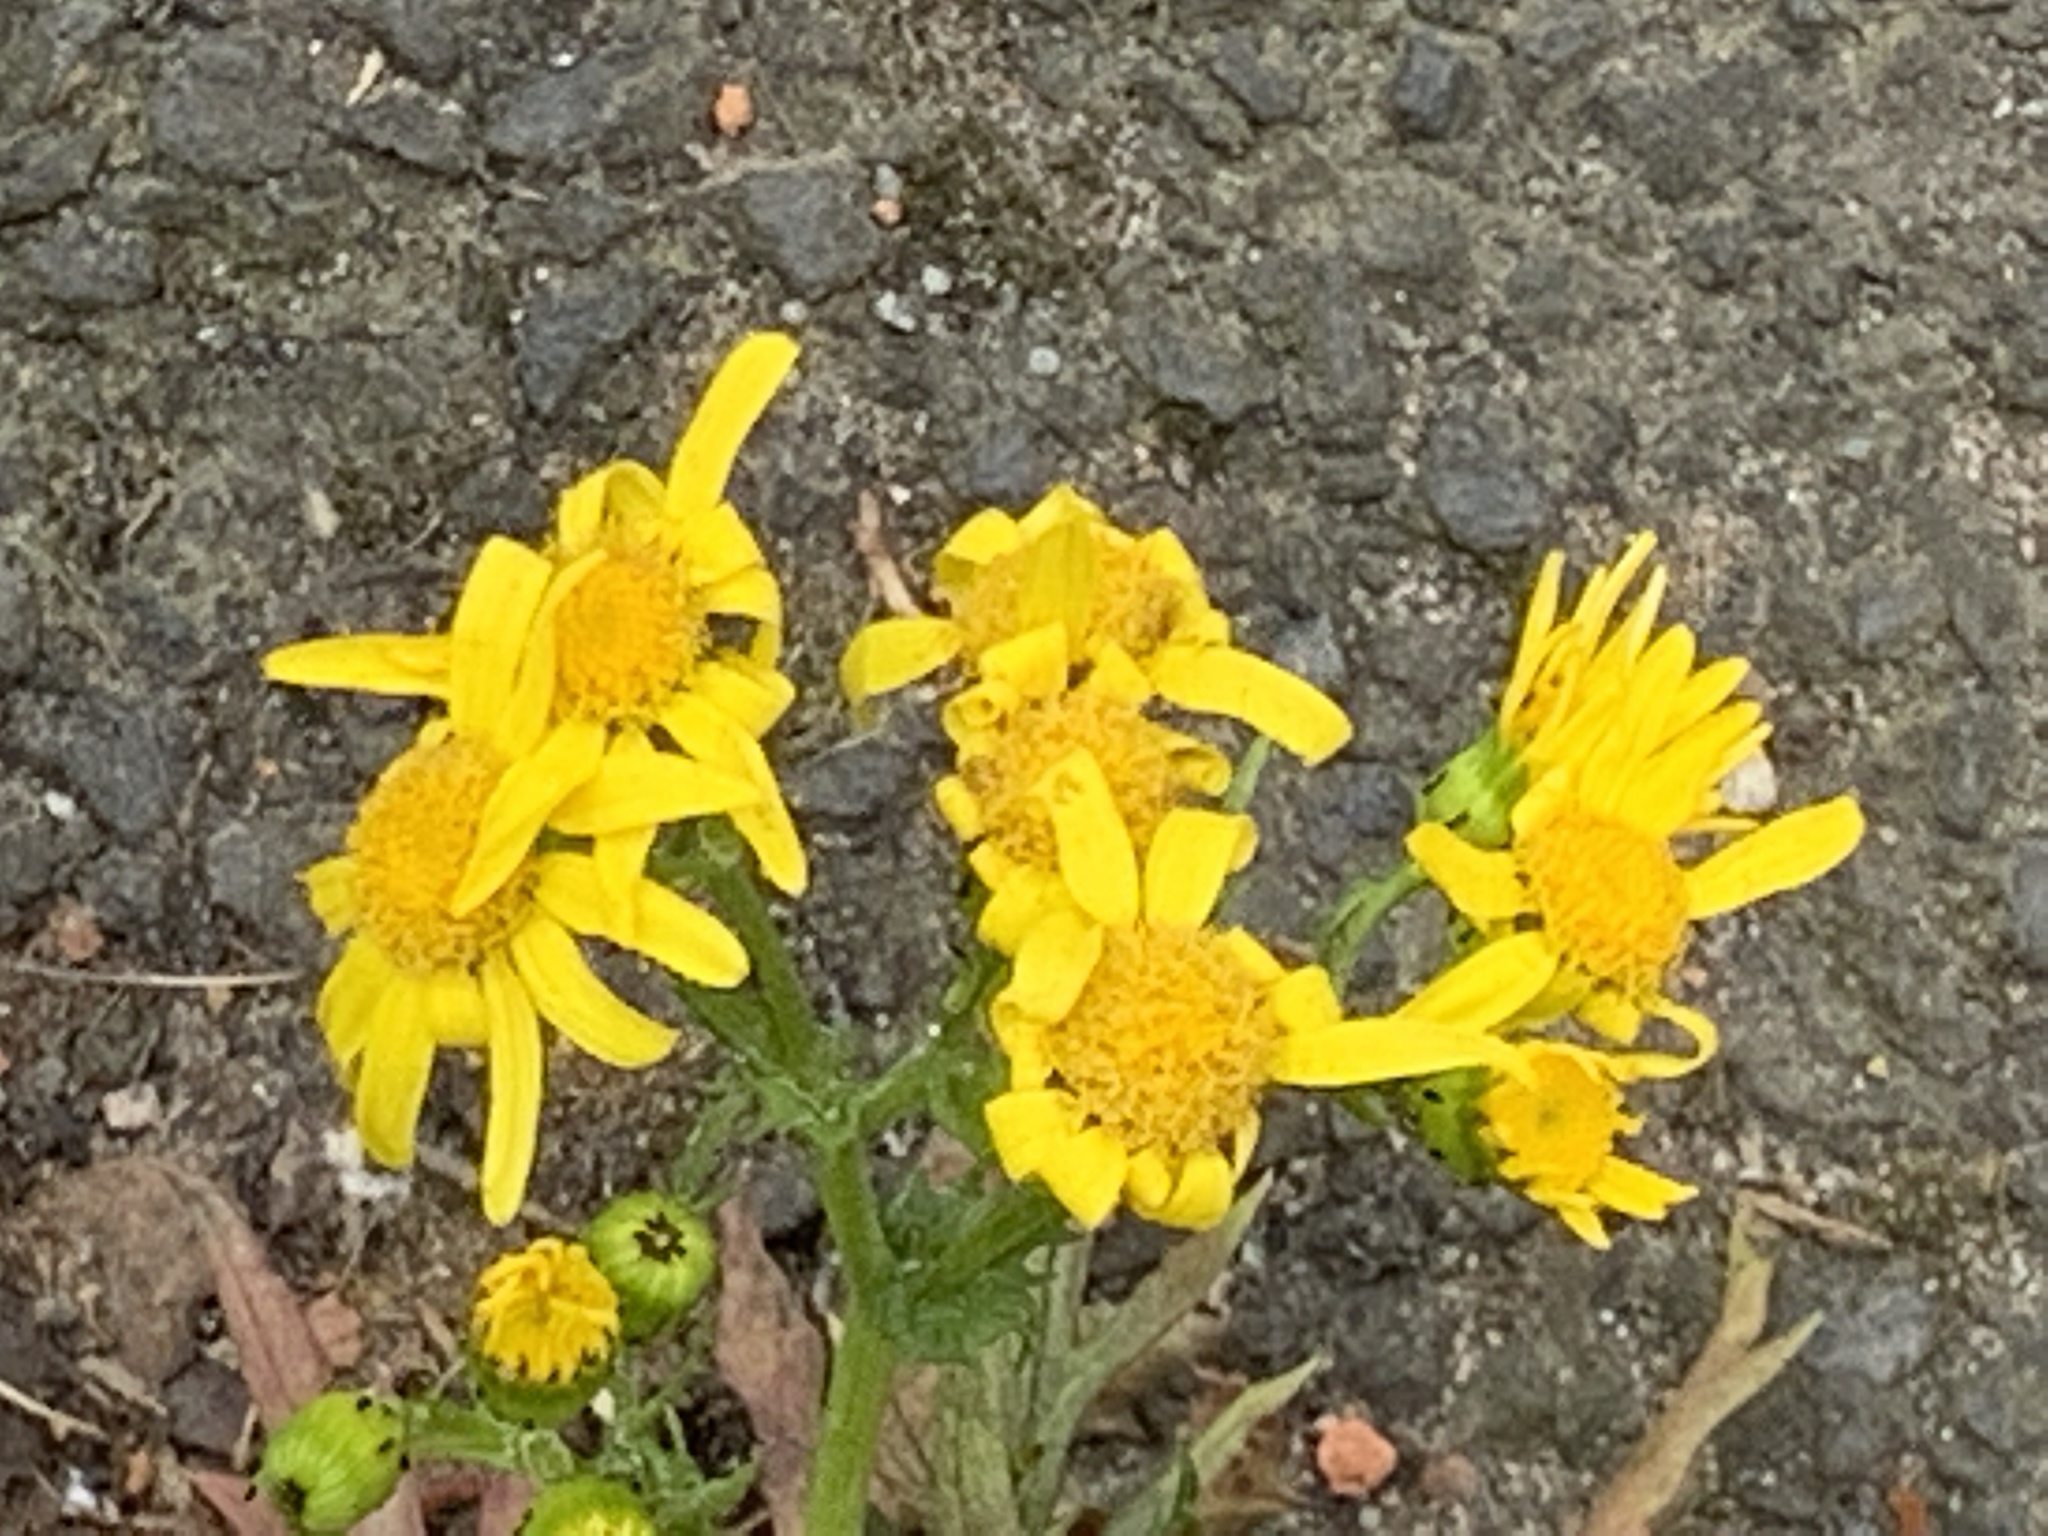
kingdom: Plantae
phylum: Tracheophyta
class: Magnoliopsida
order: Asterales
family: Asteraceae
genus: Senecio
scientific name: Senecio squalidus
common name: Oxford ragwort
